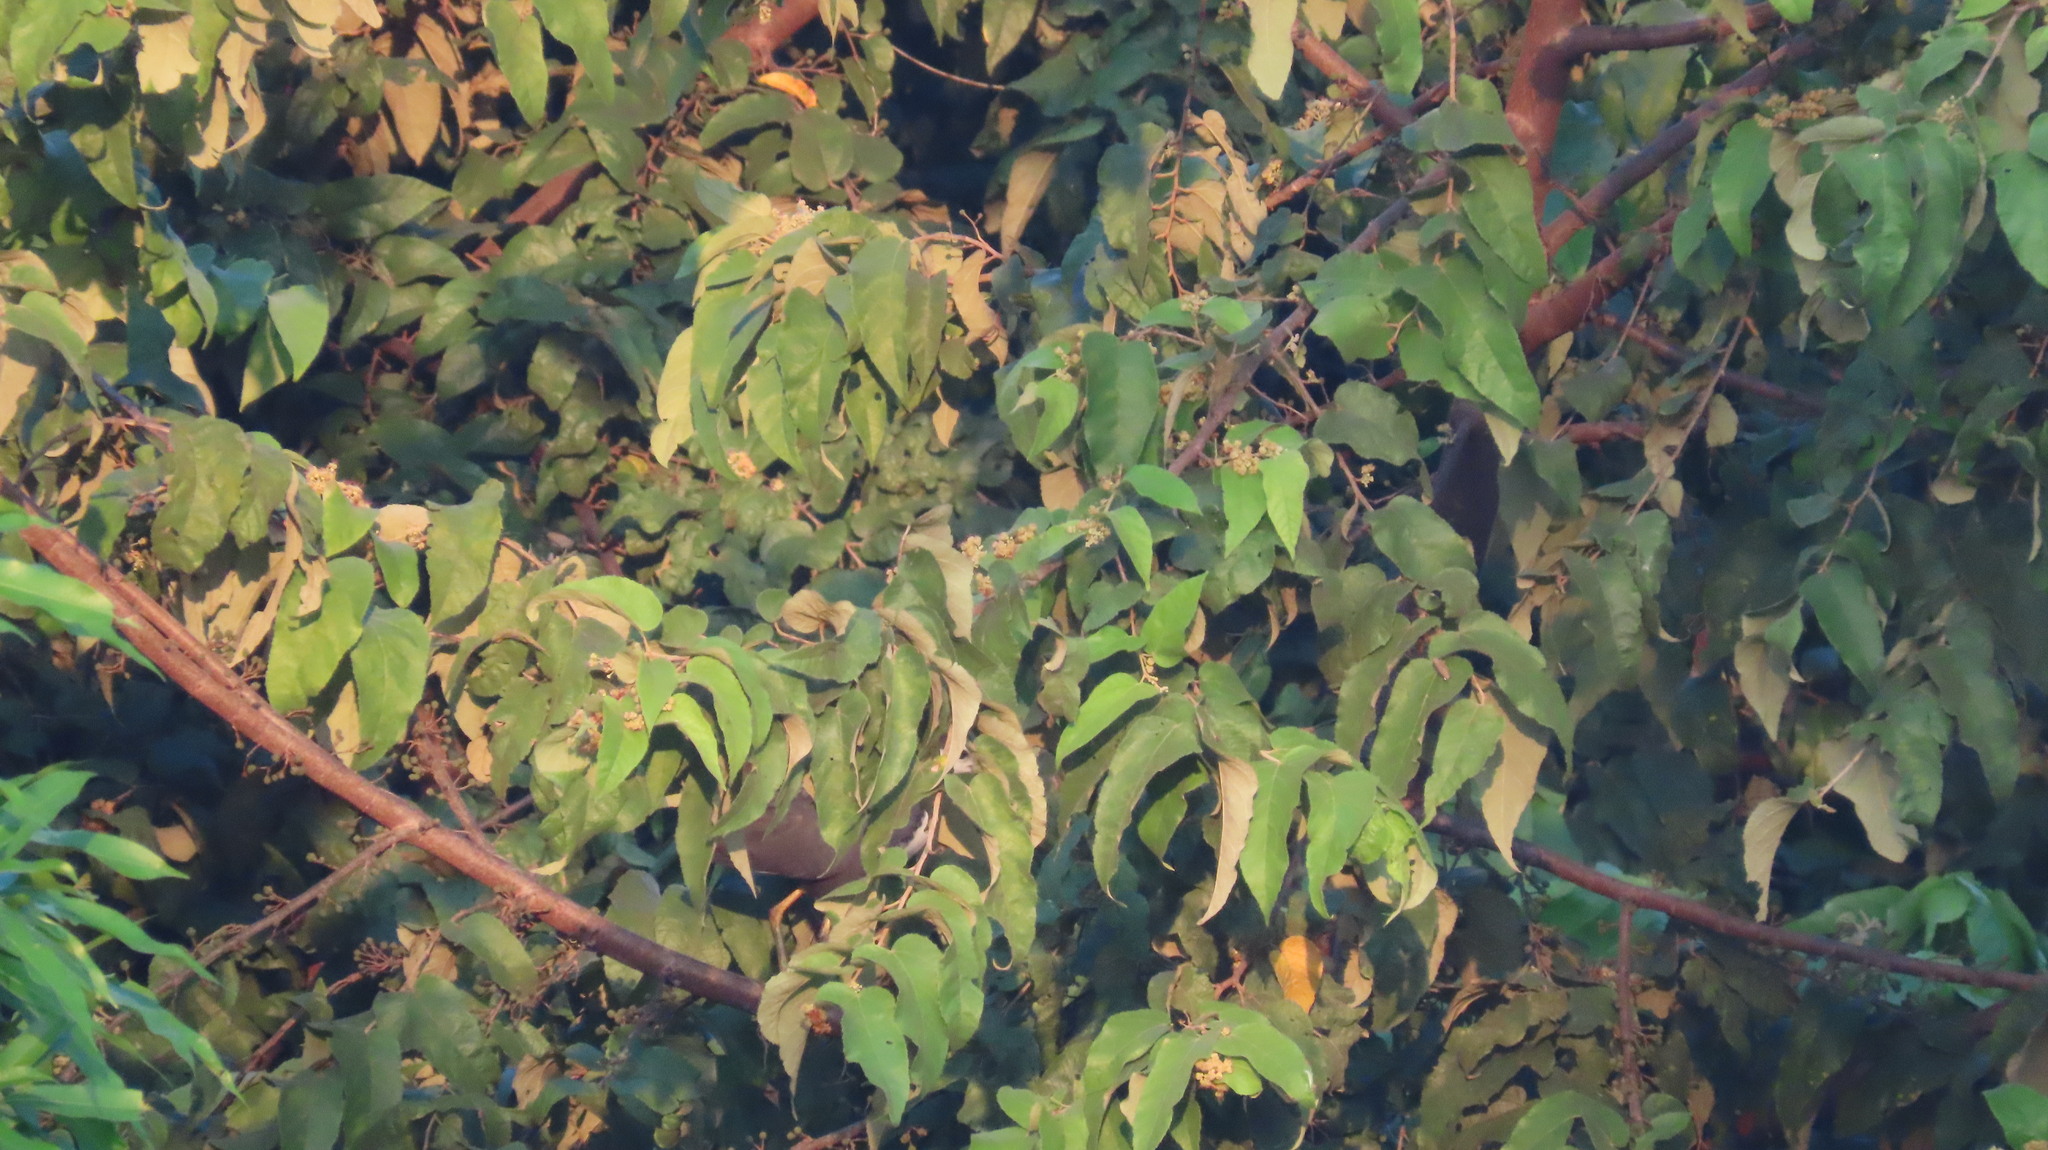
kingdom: Animalia
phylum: Chordata
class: Aves
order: Gruiformes
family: Rallidae
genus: Amaurornis
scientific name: Amaurornis phoenicurus
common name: White-breasted waterhen
